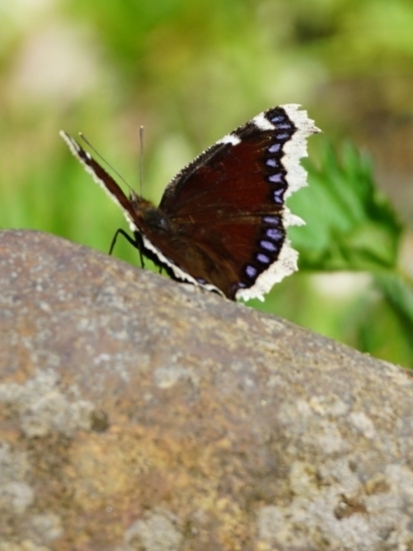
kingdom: Animalia
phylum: Arthropoda
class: Insecta
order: Lepidoptera
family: Nymphalidae
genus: Nymphalis
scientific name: Nymphalis antiopa
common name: Camberwell beauty
